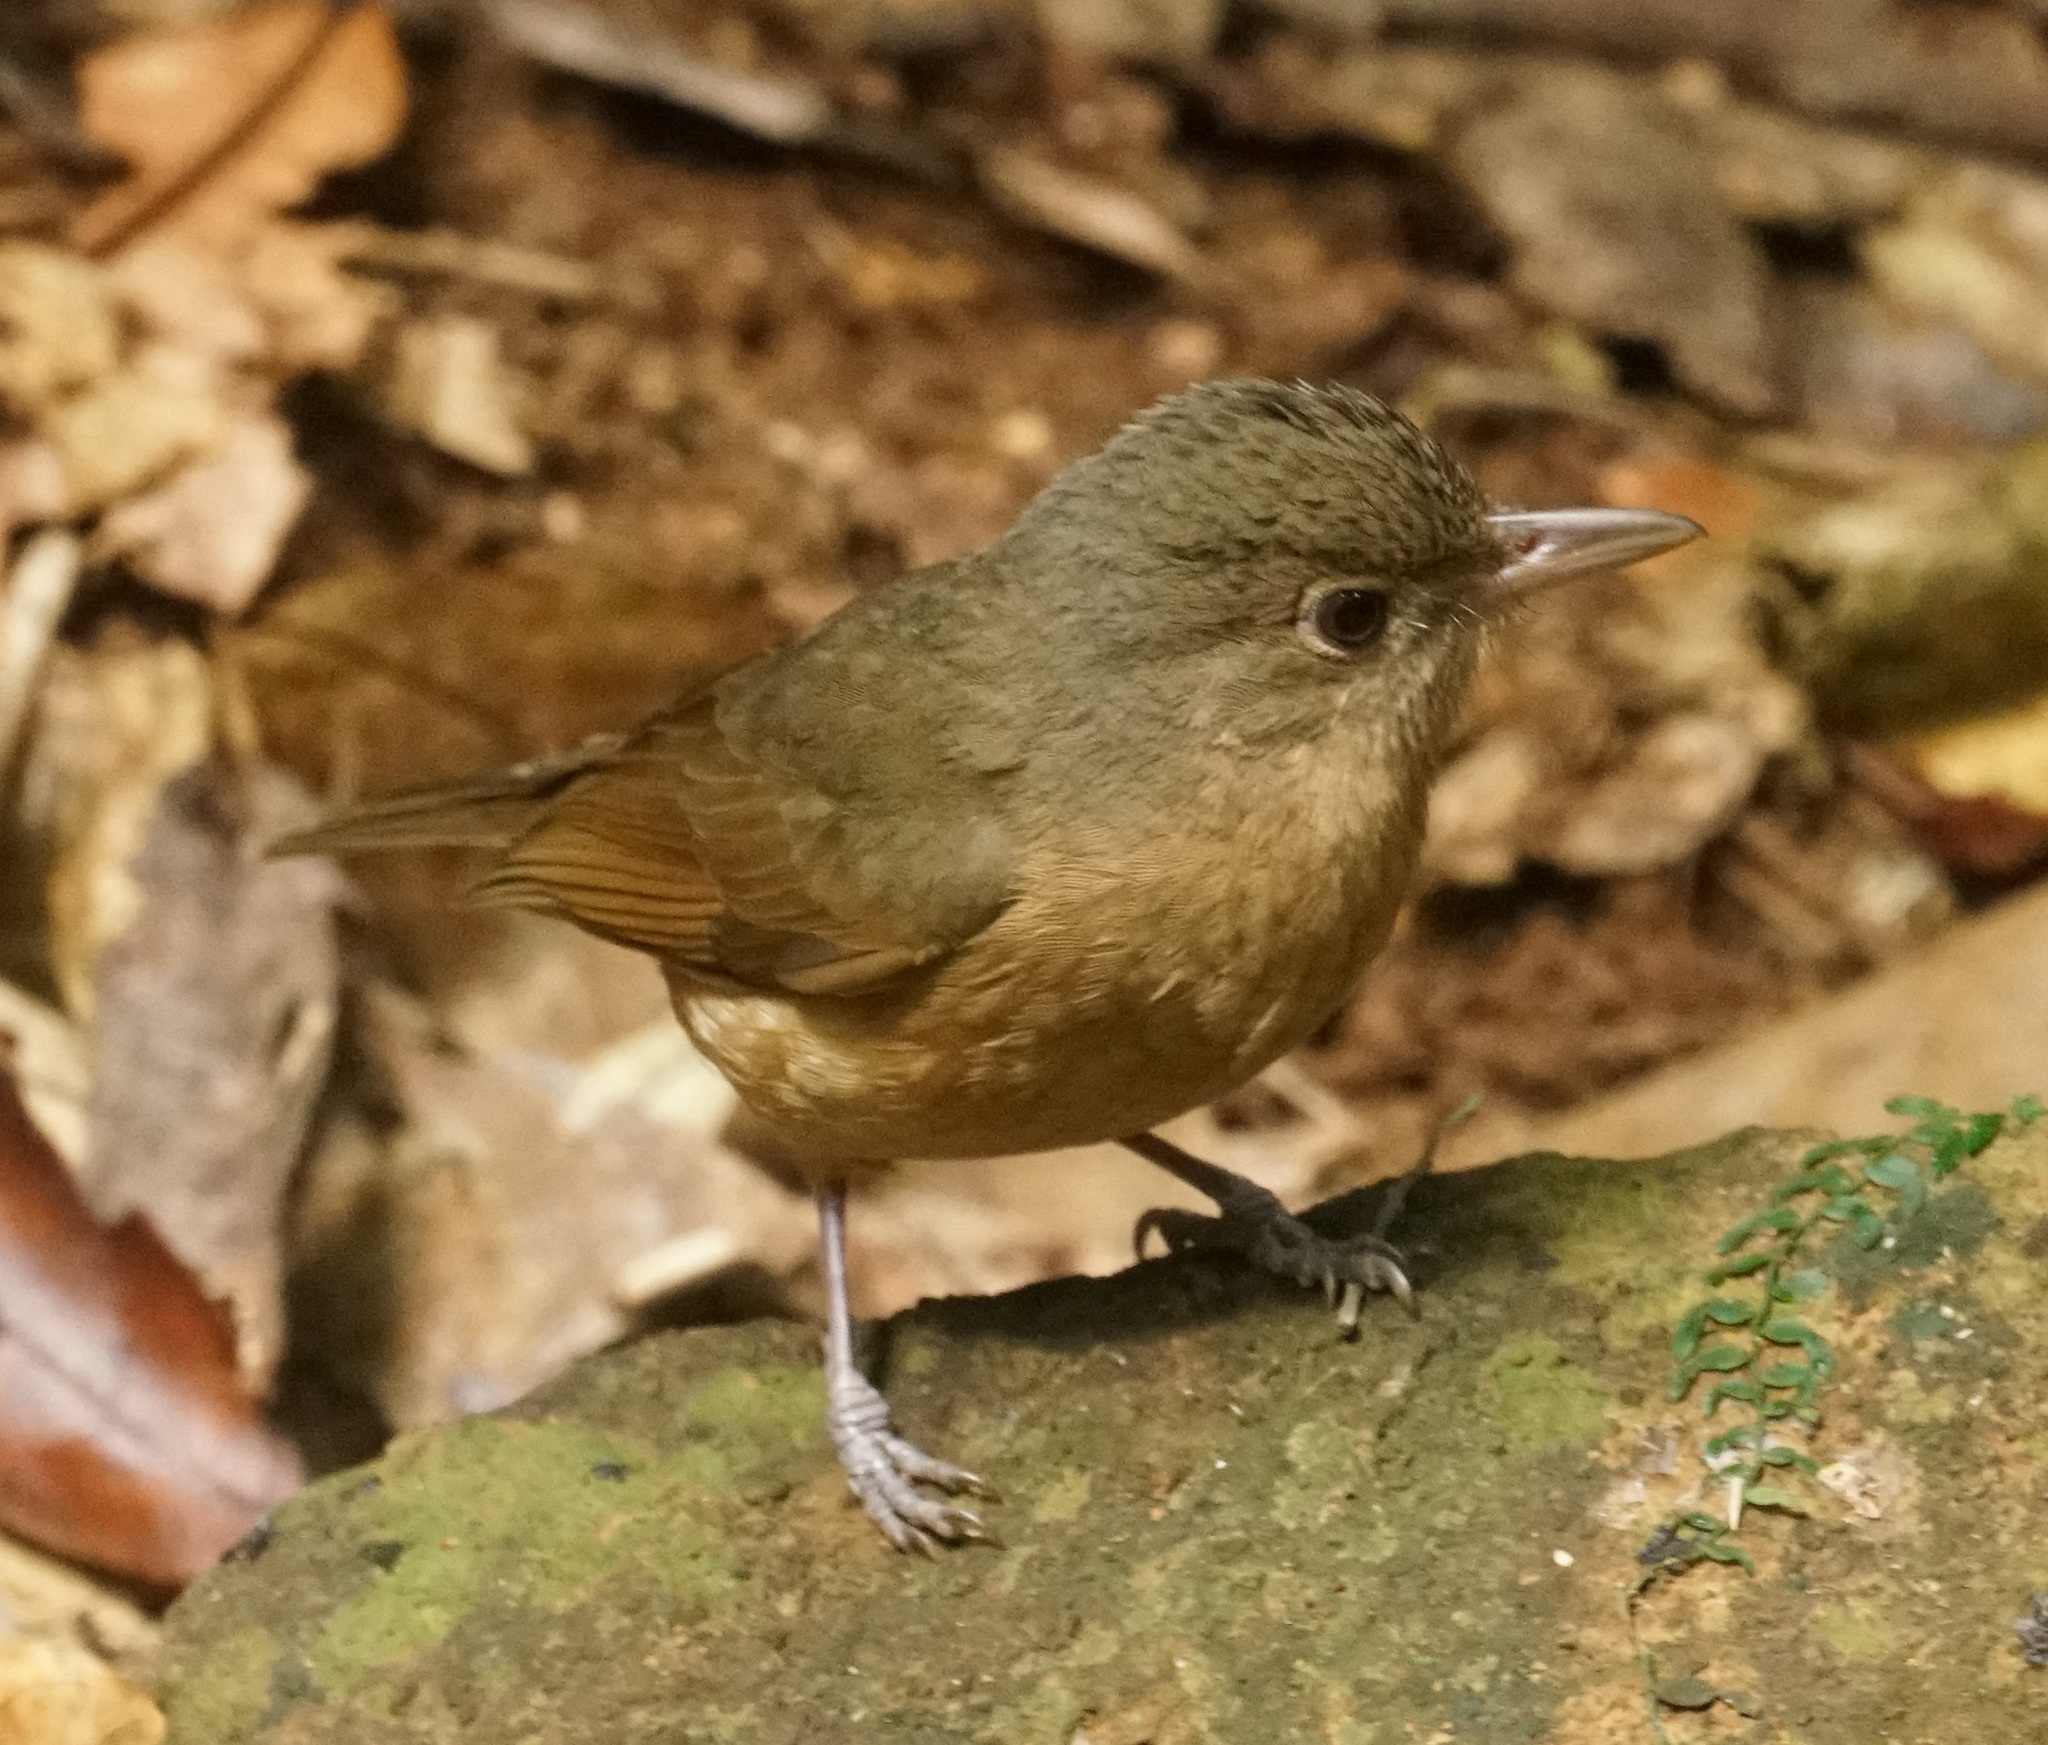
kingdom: Animalia
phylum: Chordata
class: Aves
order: Passeriformes
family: Pachycephalidae
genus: Colluricincla
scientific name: Colluricincla rufogaster
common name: Rufous shrikethrush
